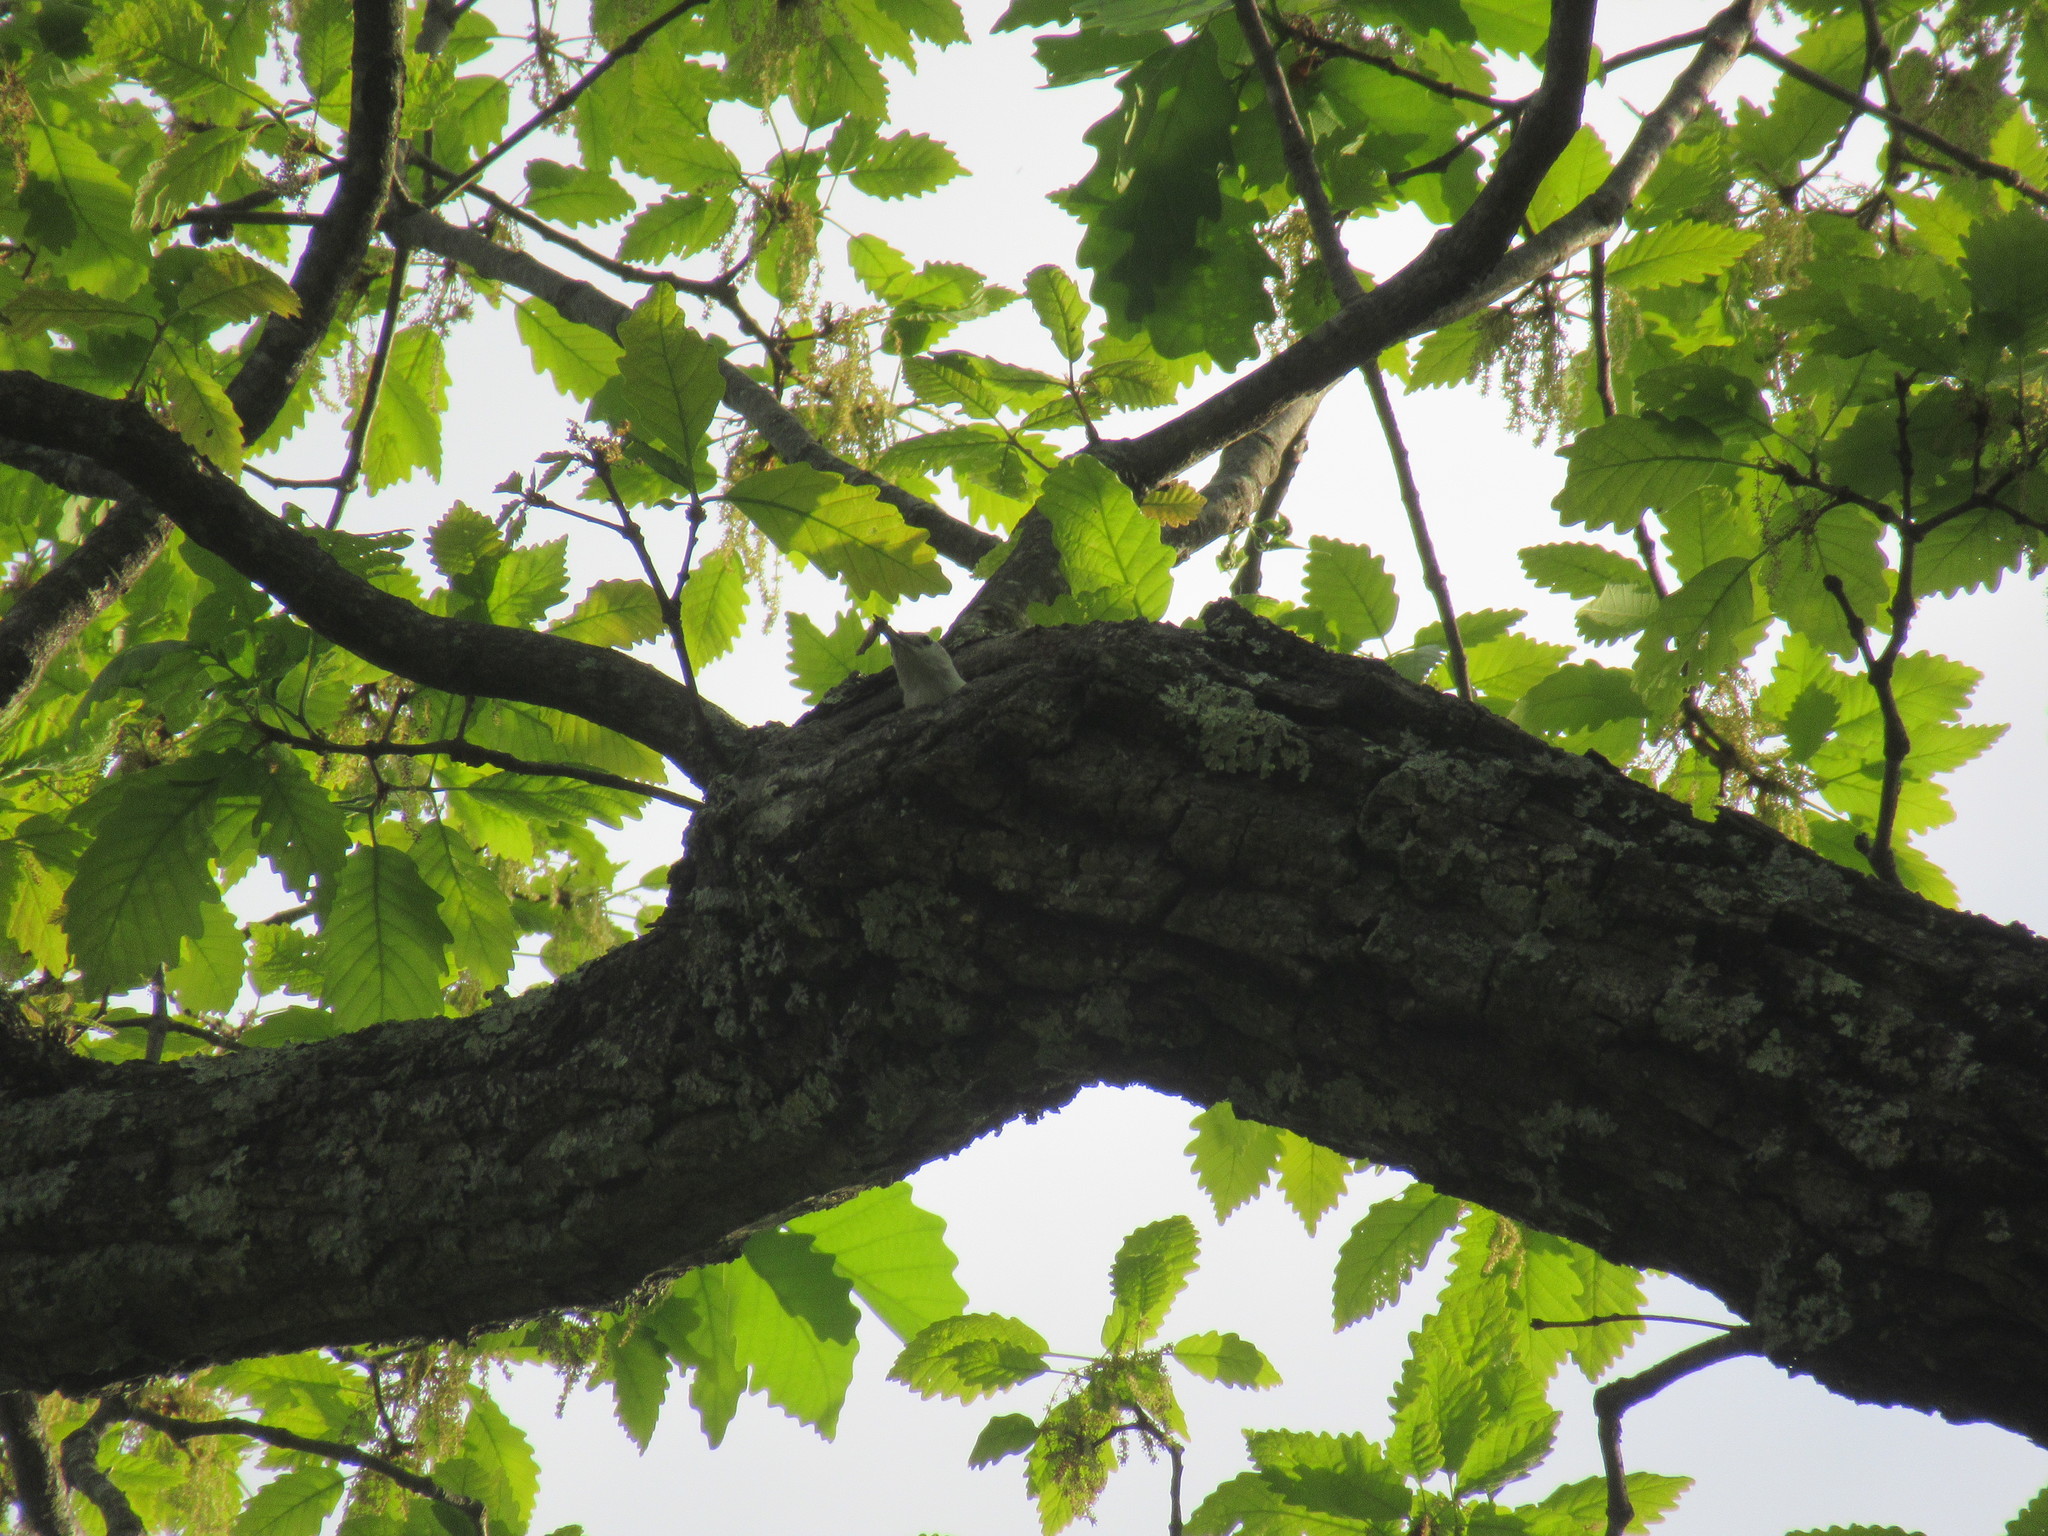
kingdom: Animalia
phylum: Chordata
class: Aves
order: Passeriformes
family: Sittidae
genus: Sitta
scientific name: Sitta carolinensis
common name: White-breasted nuthatch
